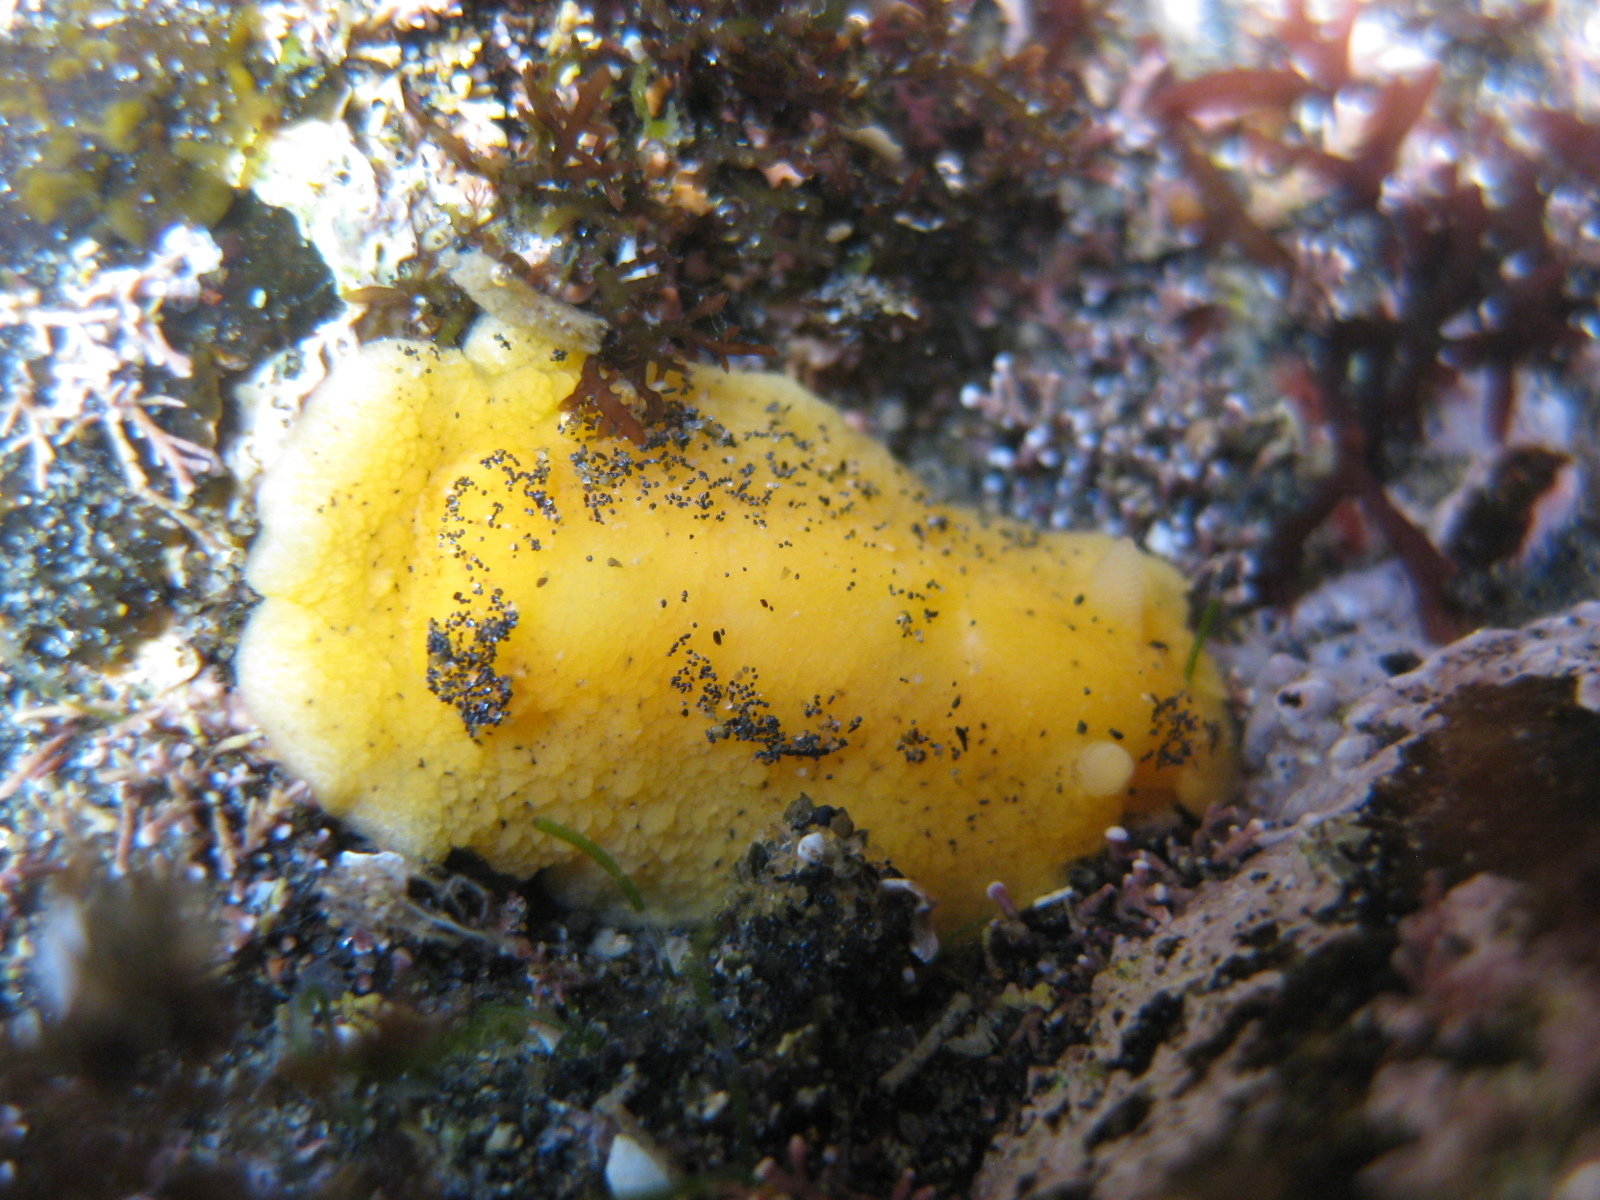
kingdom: Animalia
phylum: Mollusca
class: Gastropoda
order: Nudibranchia
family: Dorididae
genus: Doriopsis
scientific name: Doriopsis granulosa
